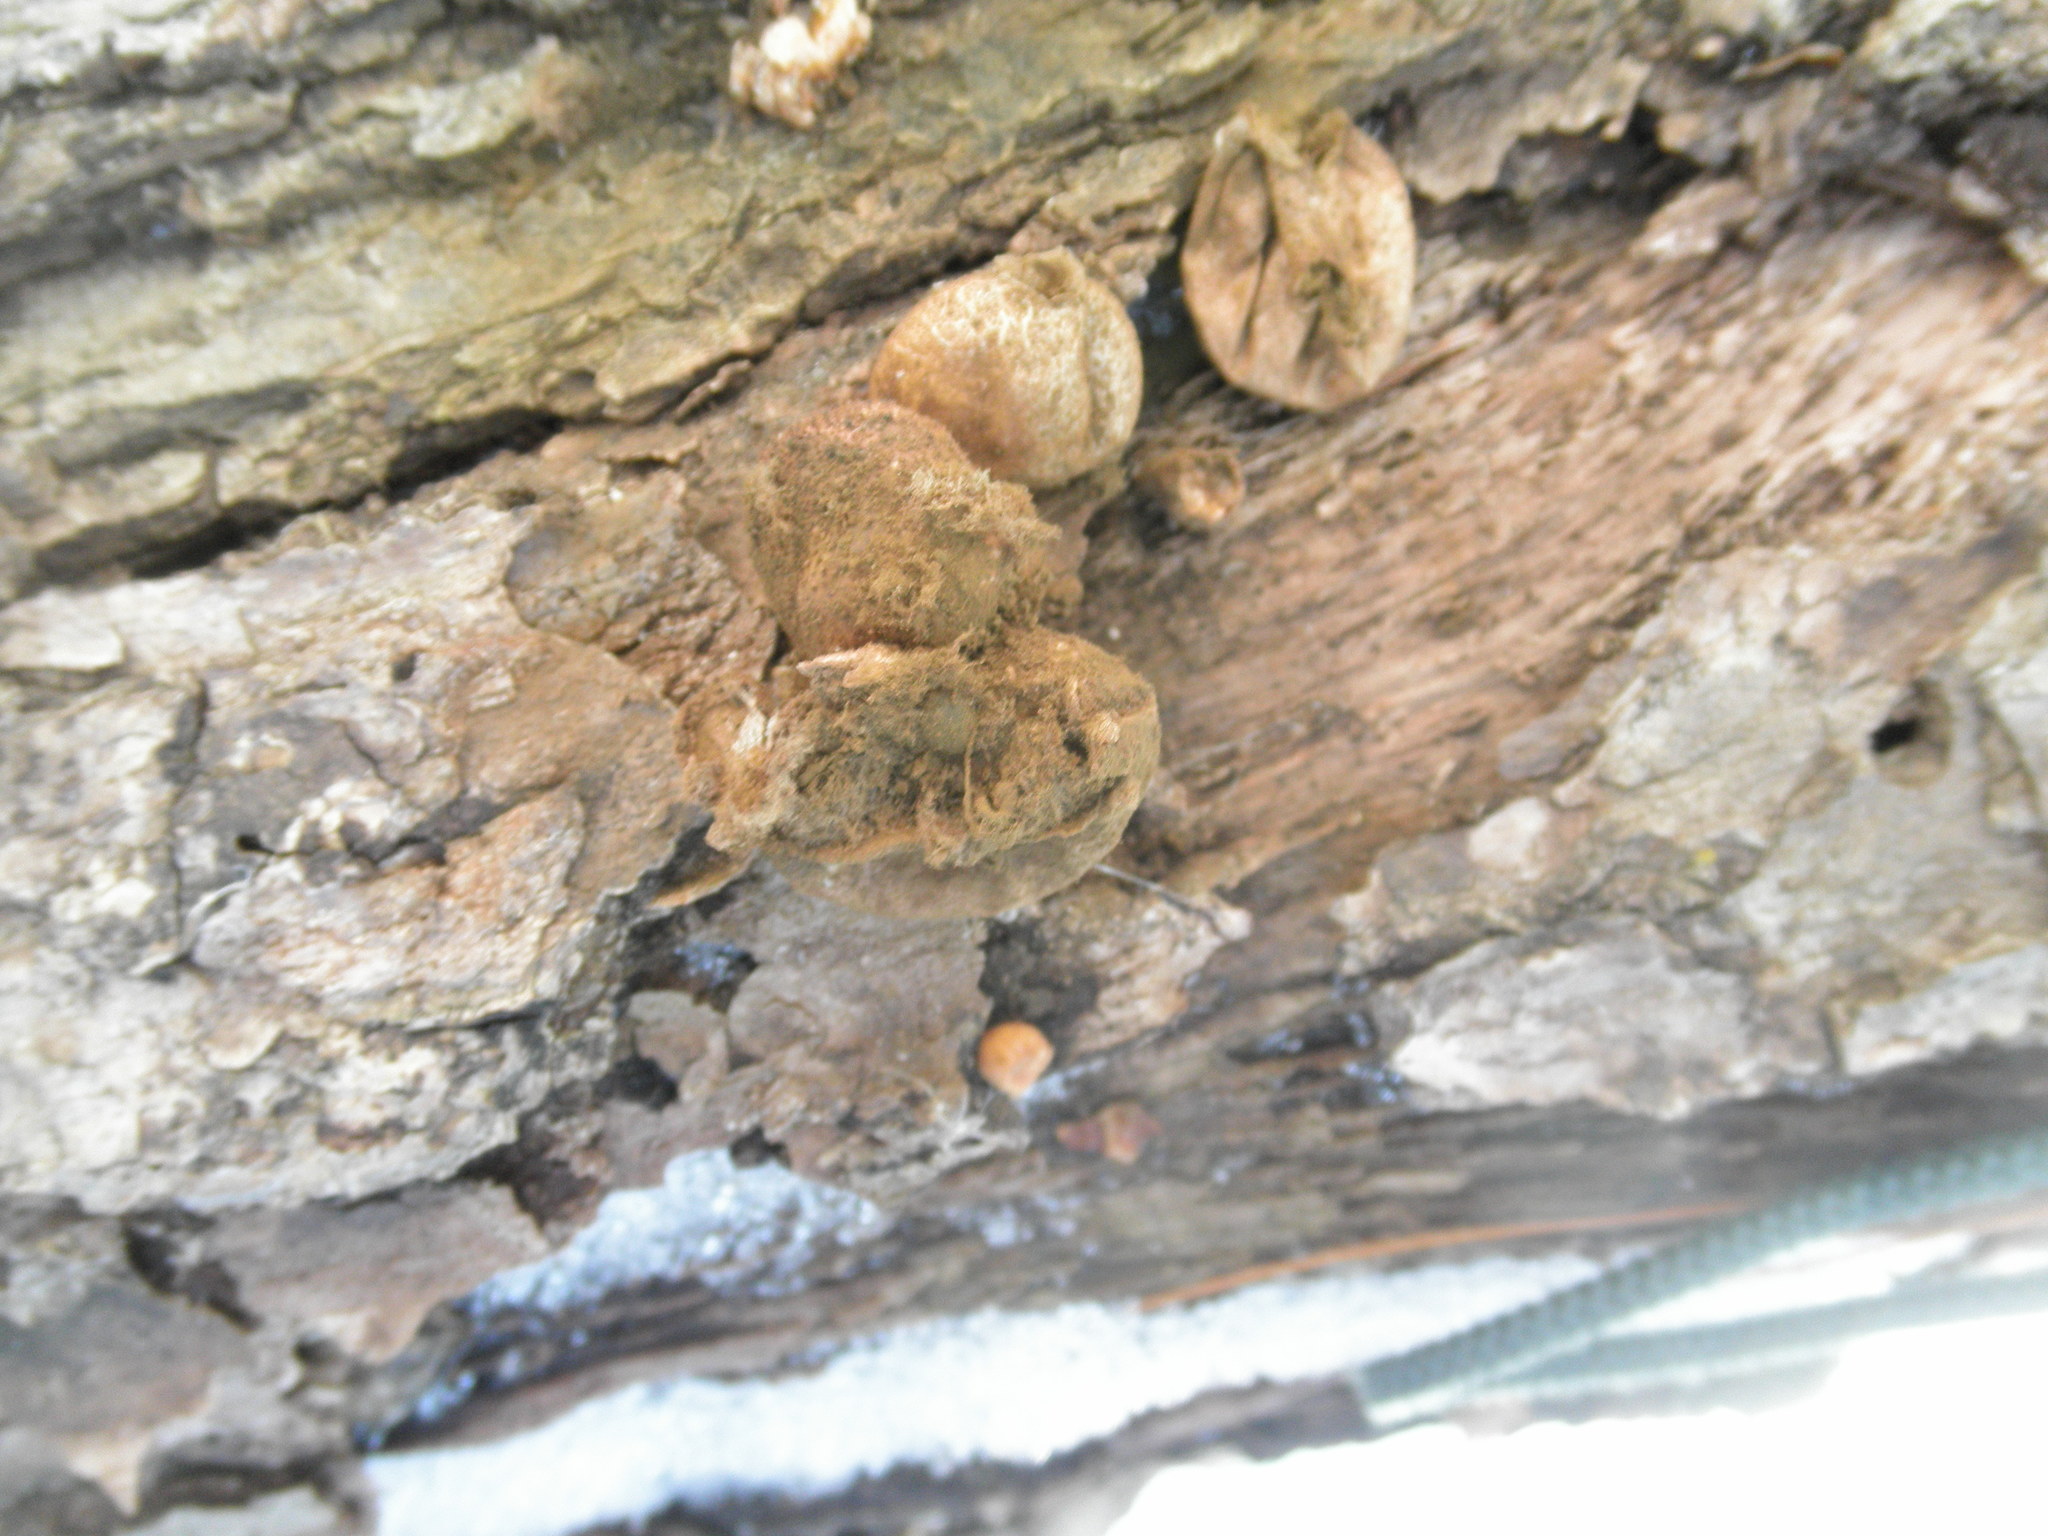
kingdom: Fungi
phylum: Basidiomycota
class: Agaricomycetes
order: Agaricales
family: Lycoperdaceae
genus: Apioperdon
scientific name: Apioperdon pyriforme
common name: Pear-shaped puffball
